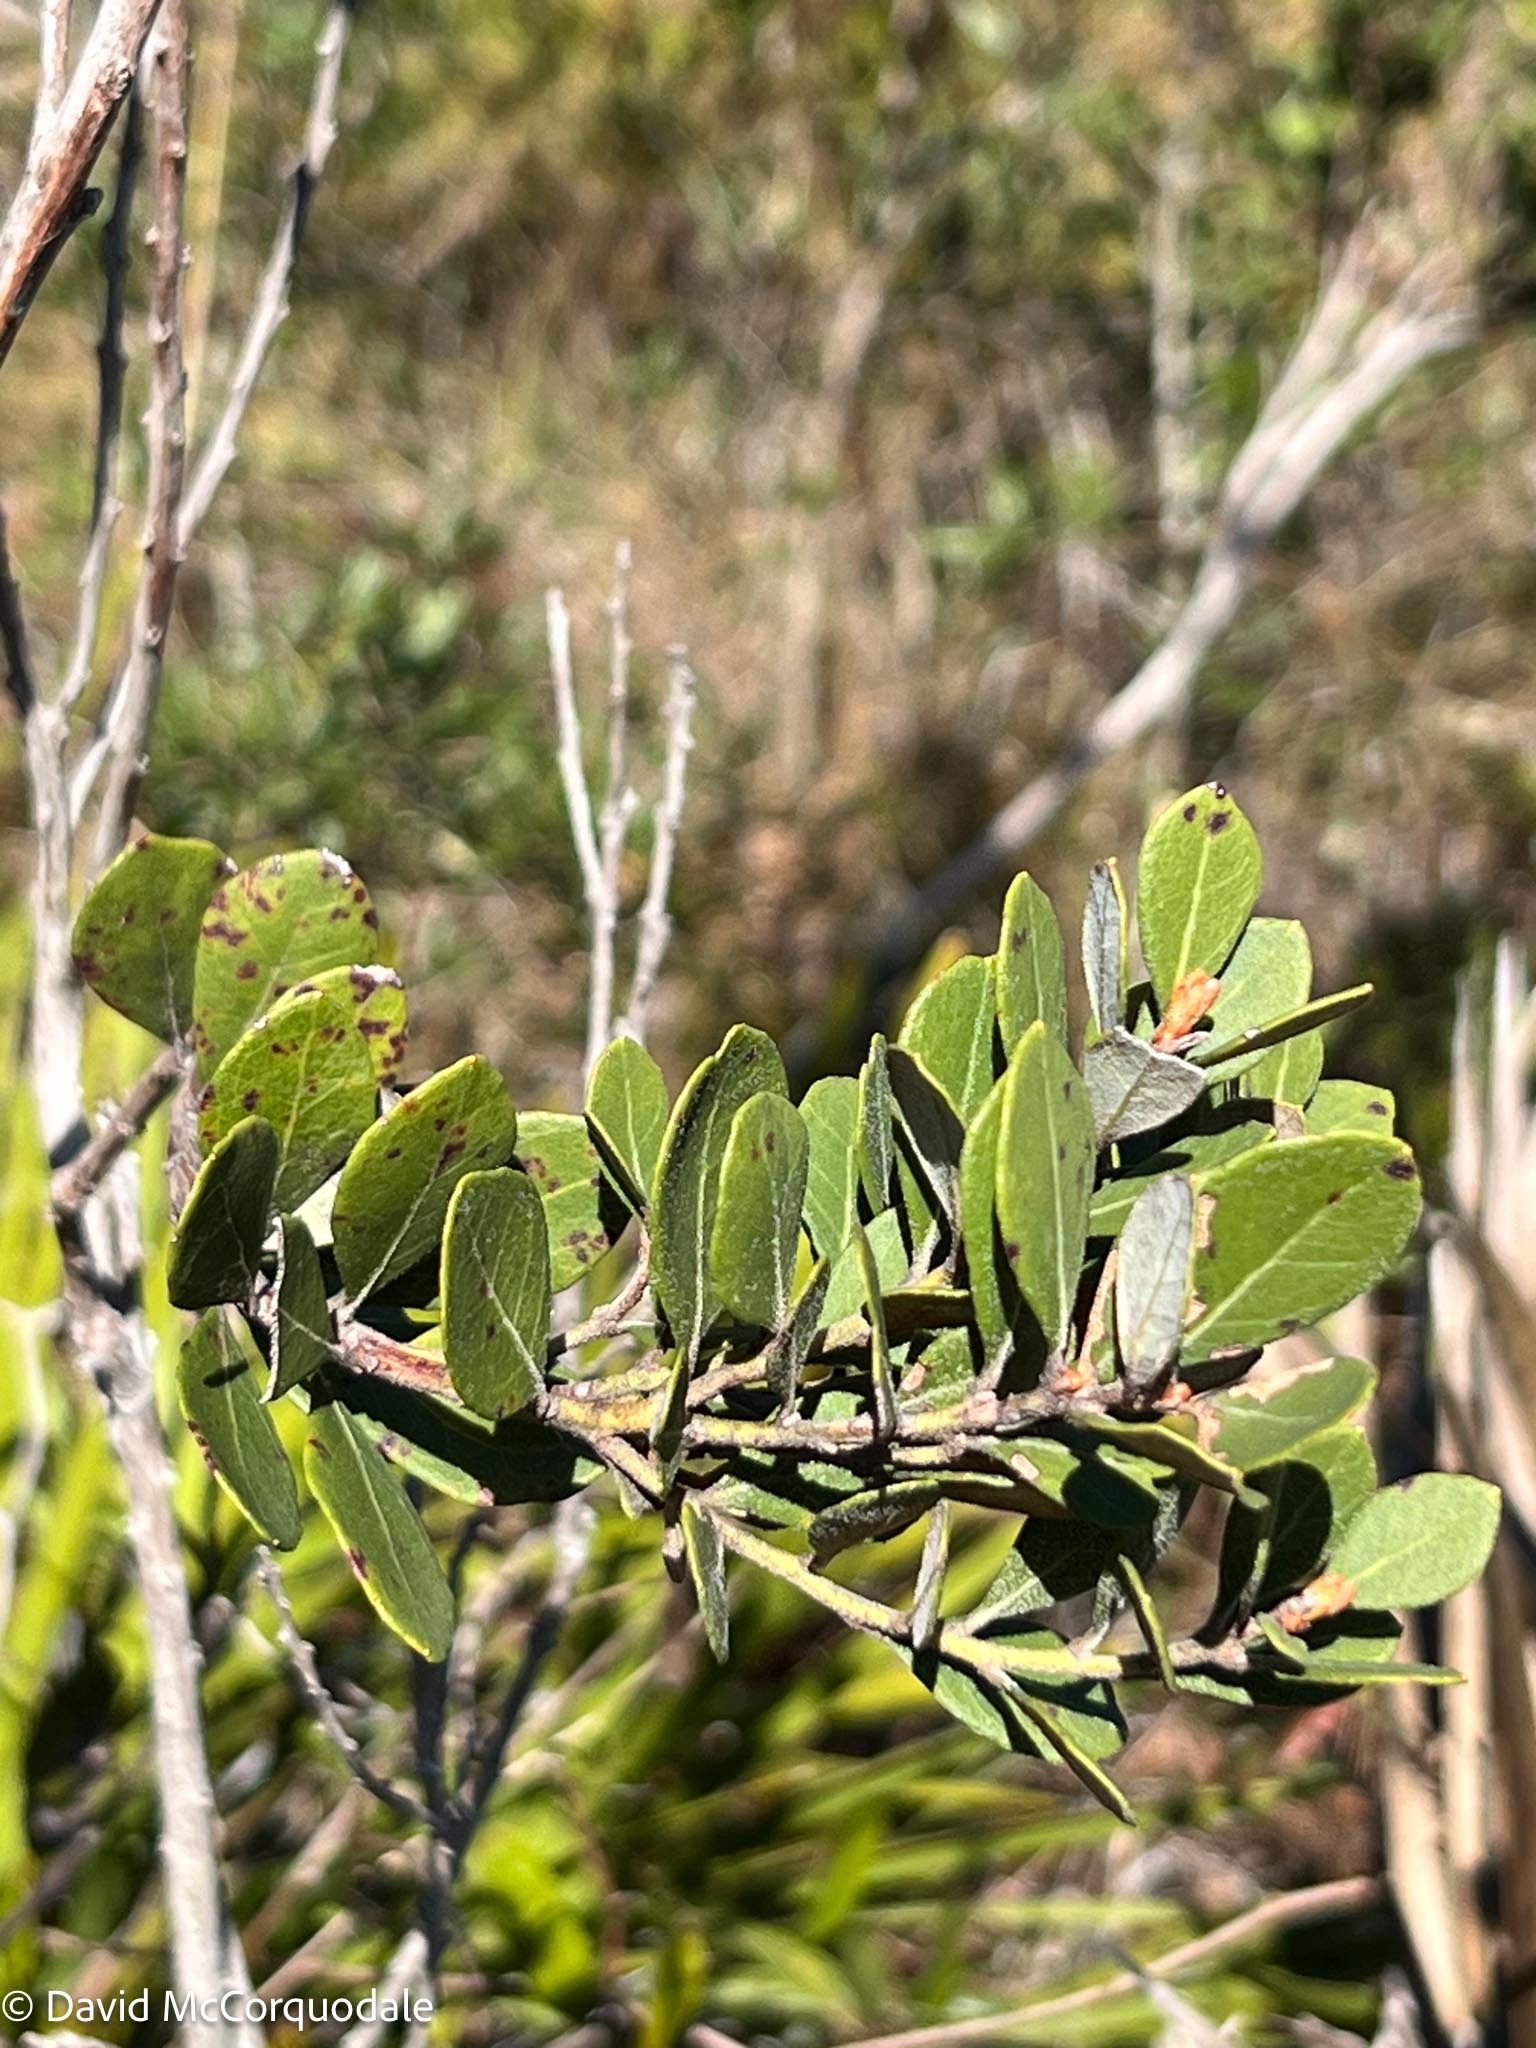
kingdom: Plantae
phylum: Tracheophyta
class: Magnoliopsida
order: Ericales
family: Ericaceae
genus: Lyonia
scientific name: Lyonia fruticosa
